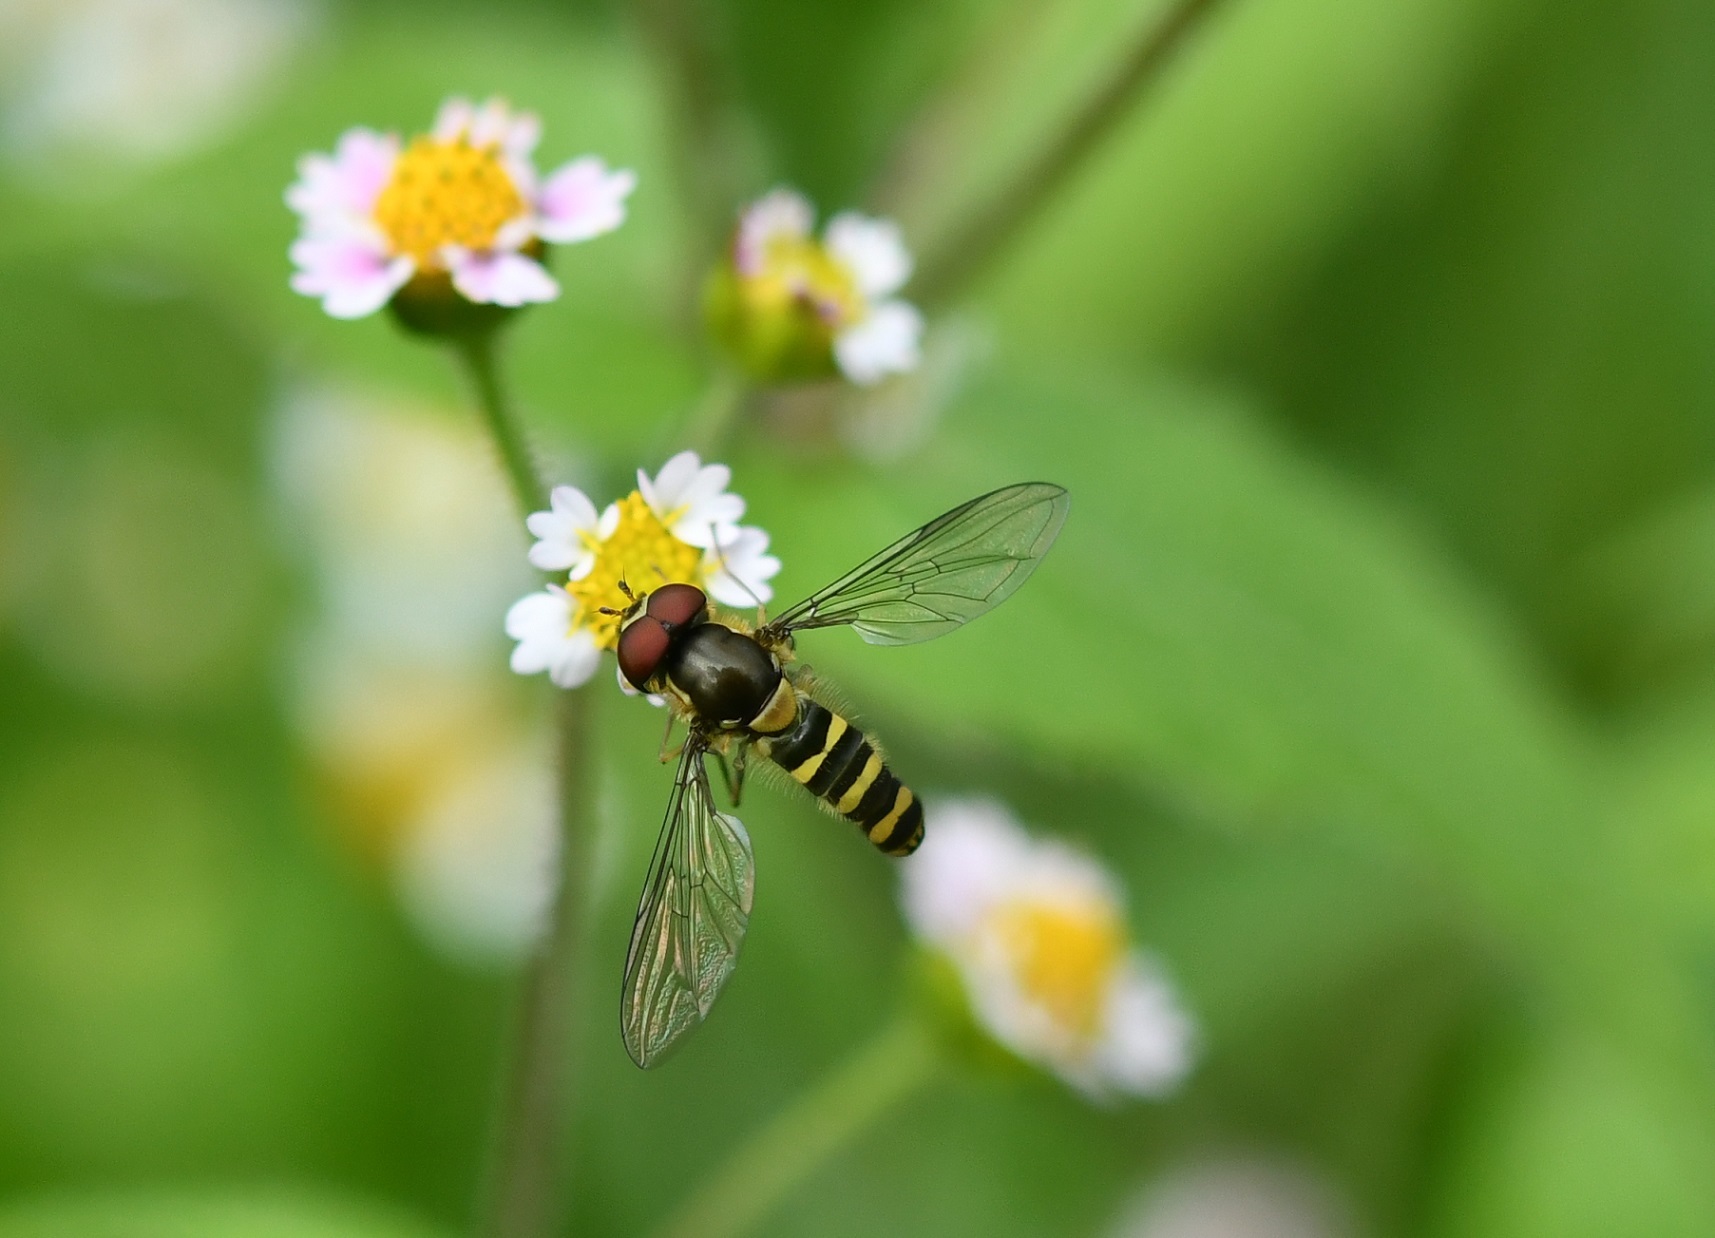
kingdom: Animalia
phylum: Arthropoda
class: Insecta
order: Diptera
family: Syrphidae
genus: Fazia
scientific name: Fazia micrura
